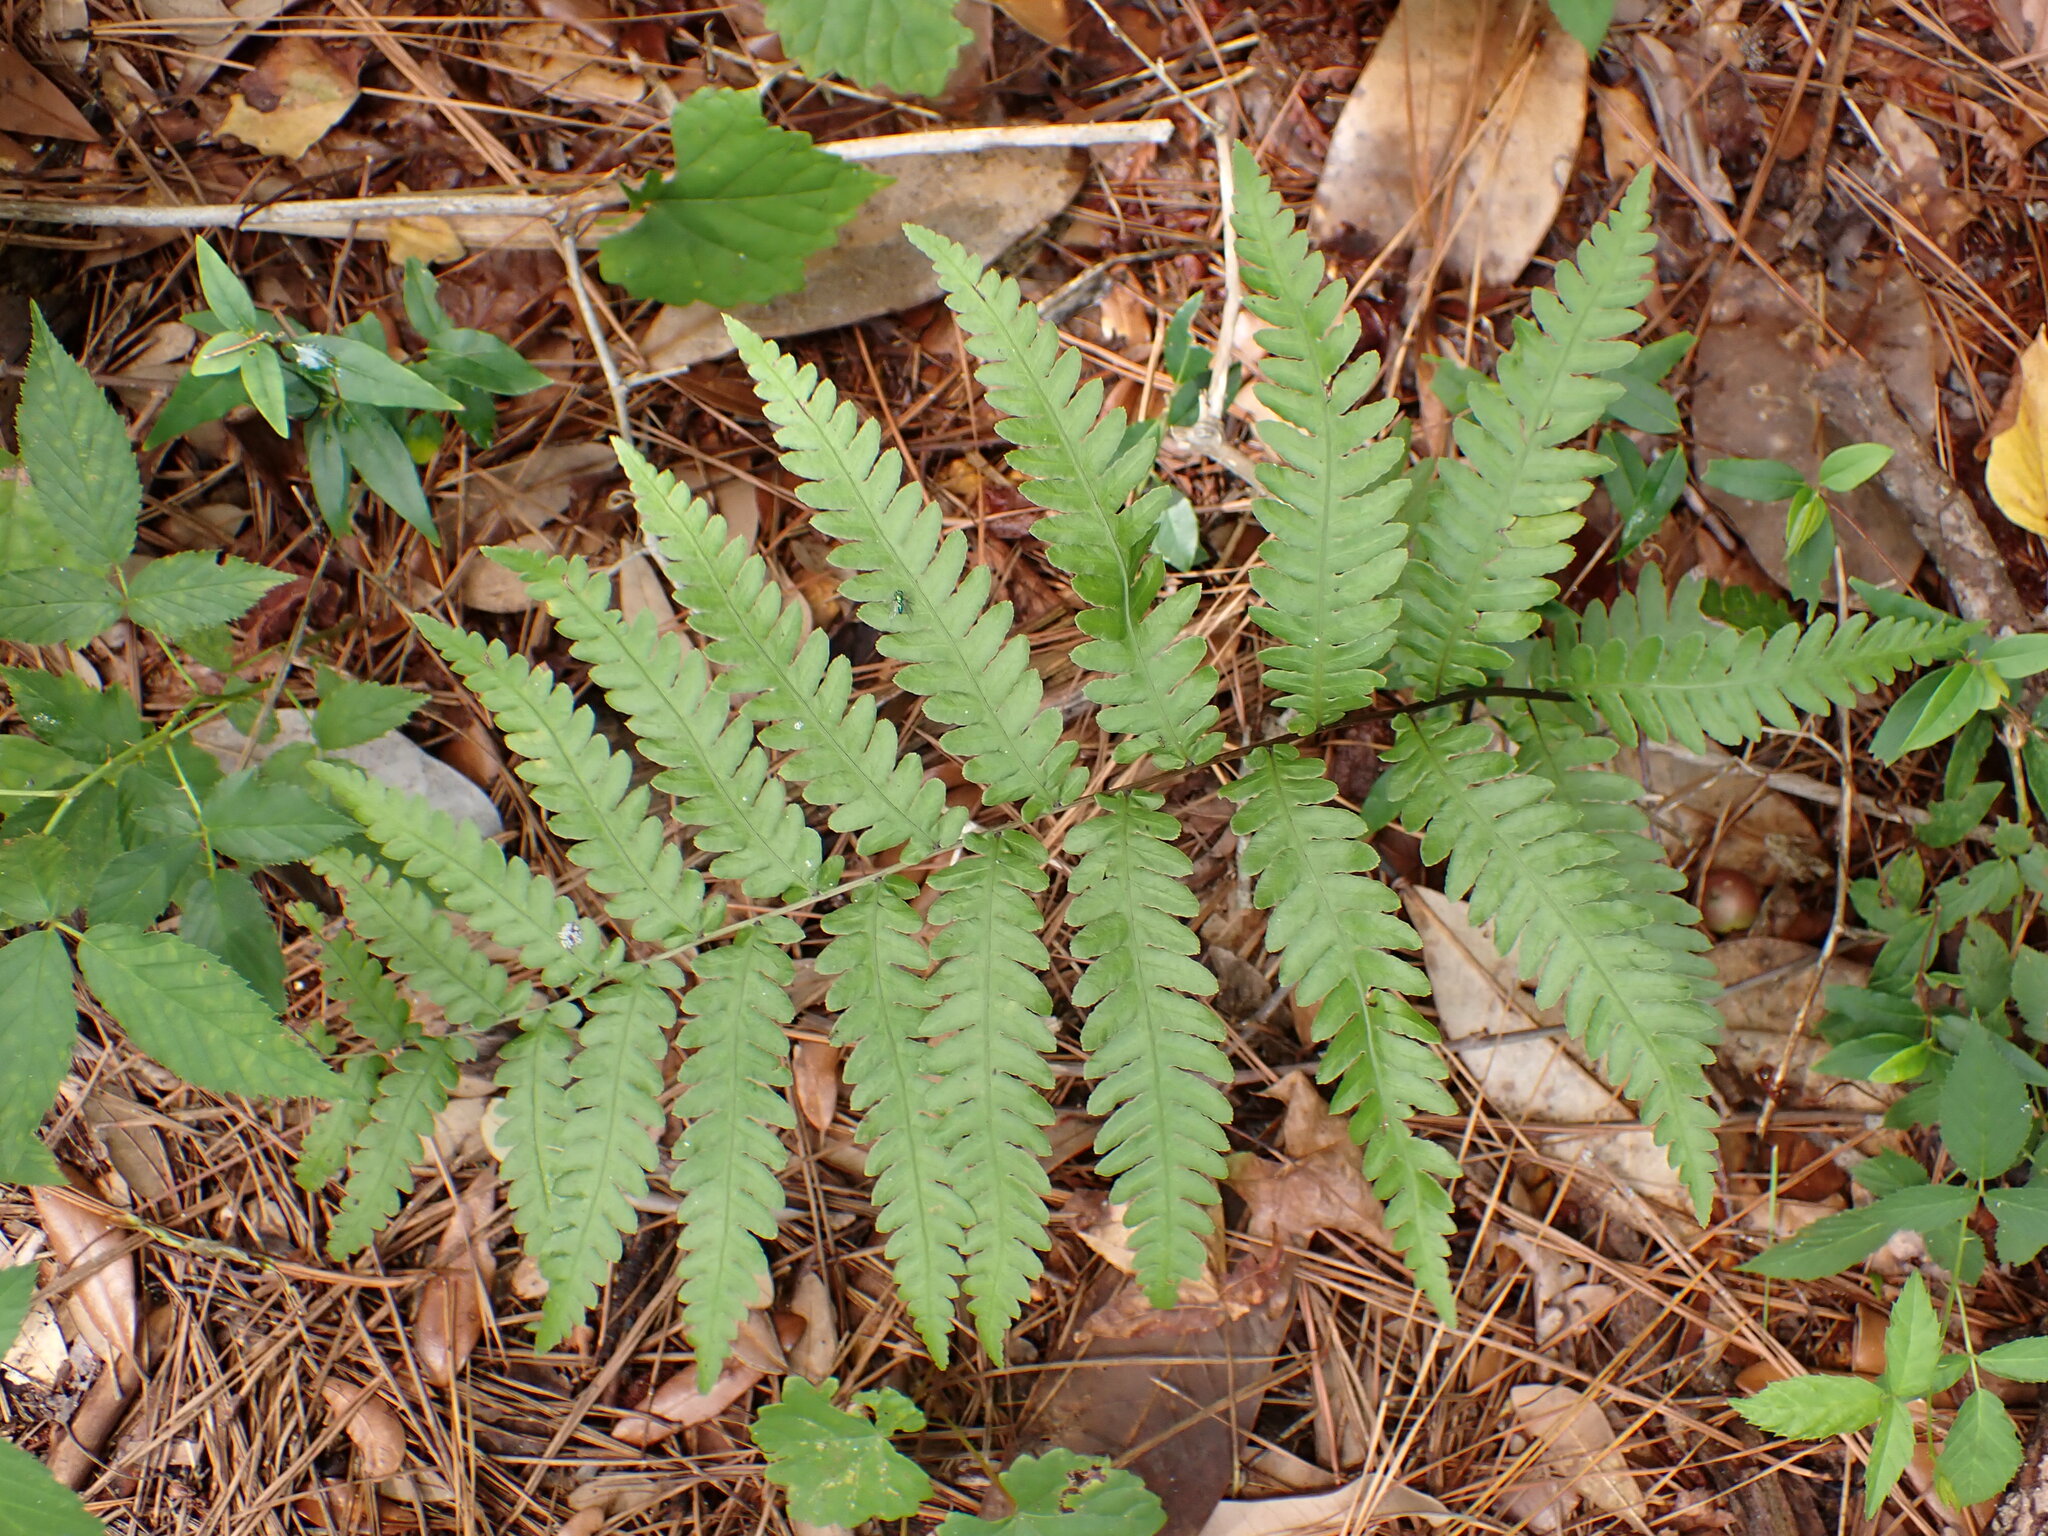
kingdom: Plantae
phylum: Tracheophyta
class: Polypodiopsida
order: Polypodiales
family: Blechnaceae
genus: Anchistea
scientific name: Anchistea virginica
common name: Virginia chain fern
